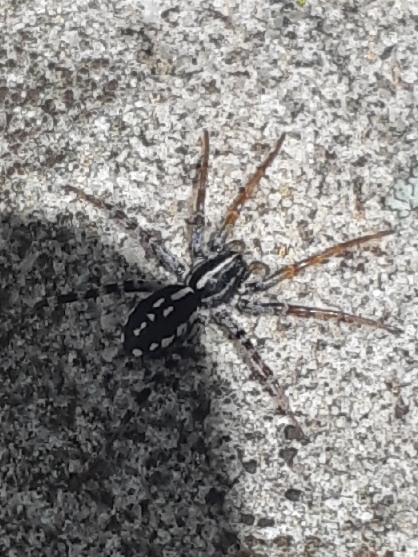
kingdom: Animalia
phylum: Arthropoda
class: Arachnida
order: Araneae
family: Corinnidae
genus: Nyssus
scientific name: Nyssus coloripes
